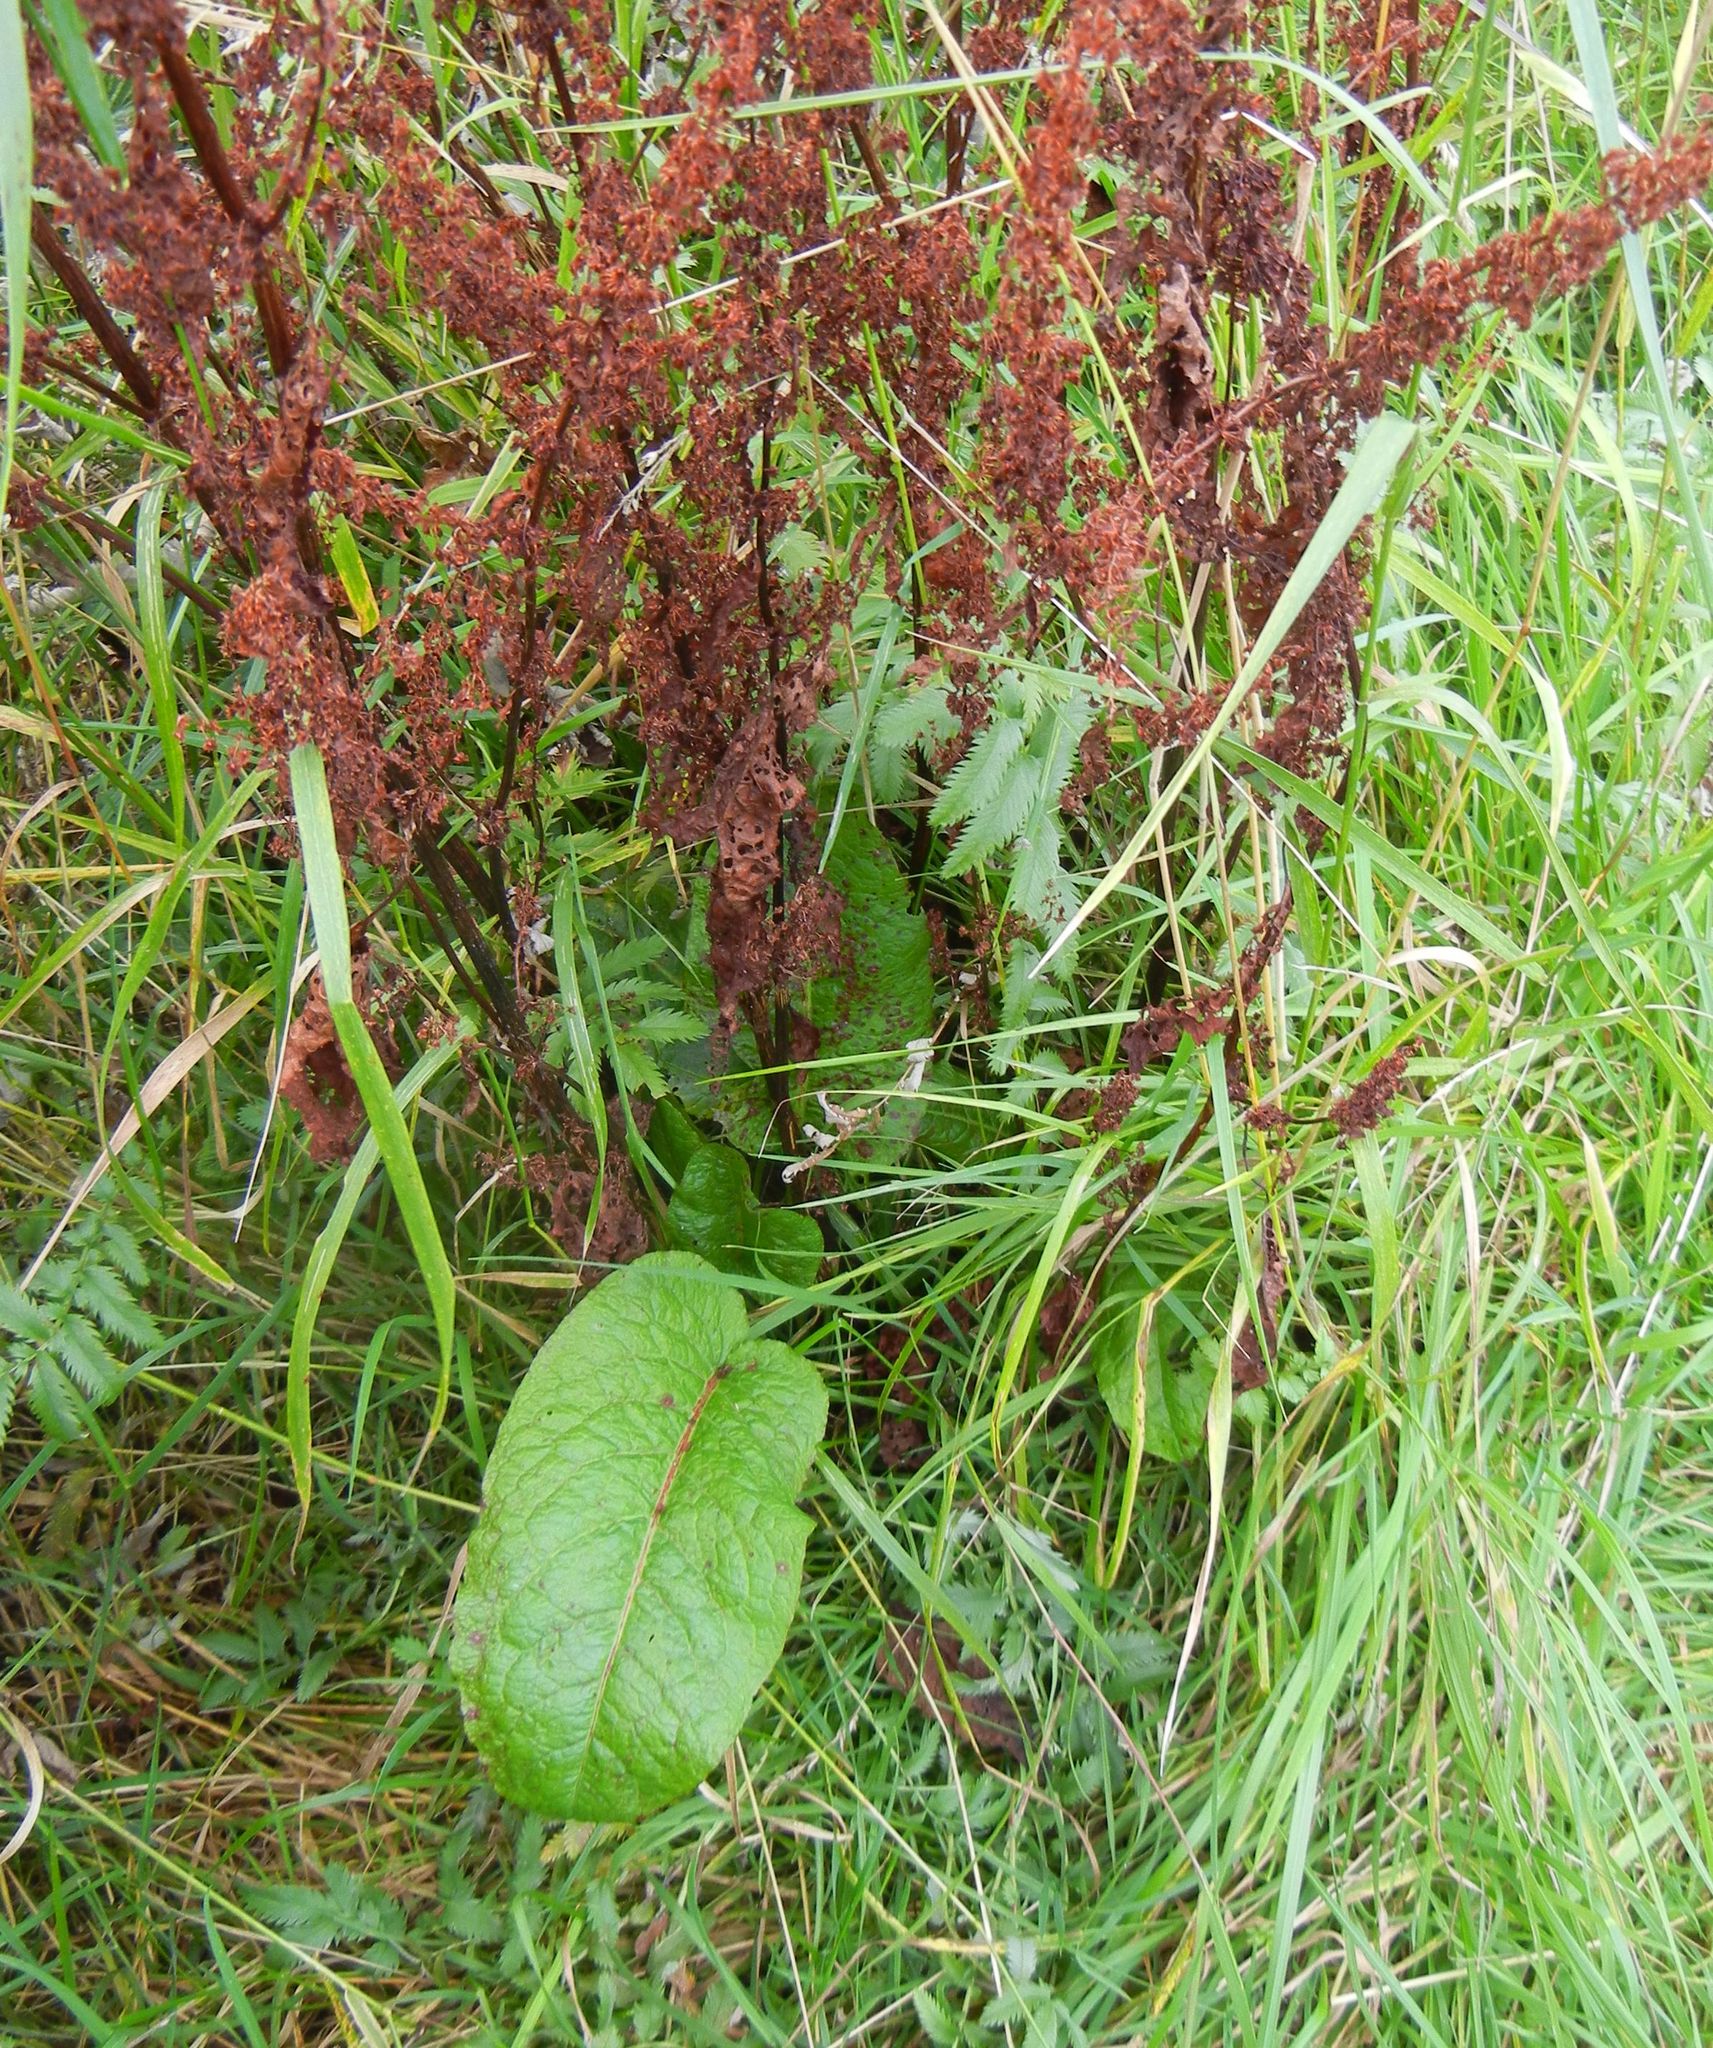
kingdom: Plantae
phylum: Tracheophyta
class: Magnoliopsida
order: Caryophyllales
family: Polygonaceae
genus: Rumex
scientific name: Rumex obtusifolius
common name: Bitter dock
